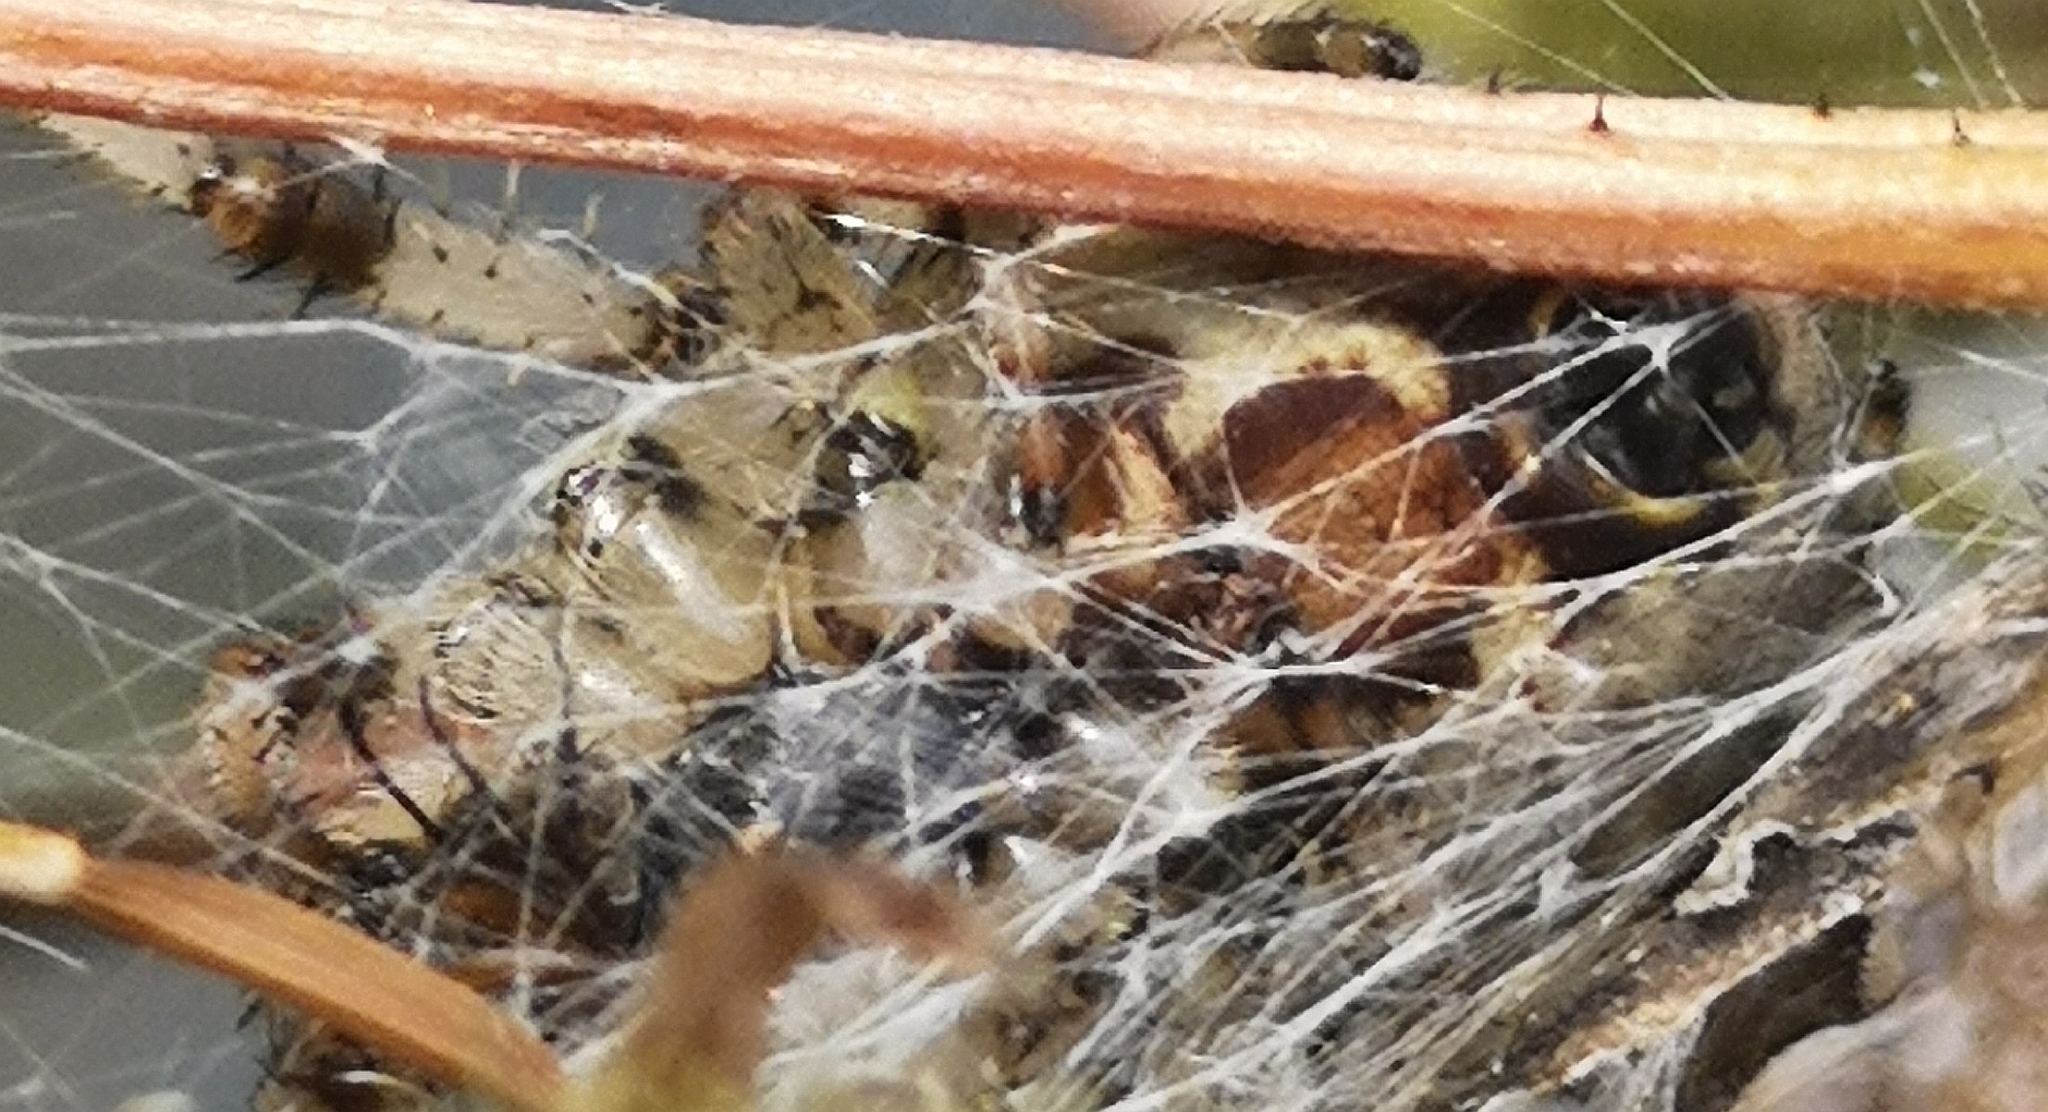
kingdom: Animalia
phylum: Arthropoda
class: Arachnida
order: Araneae
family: Araneidae
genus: Araneus
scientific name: Araneus quadratus
